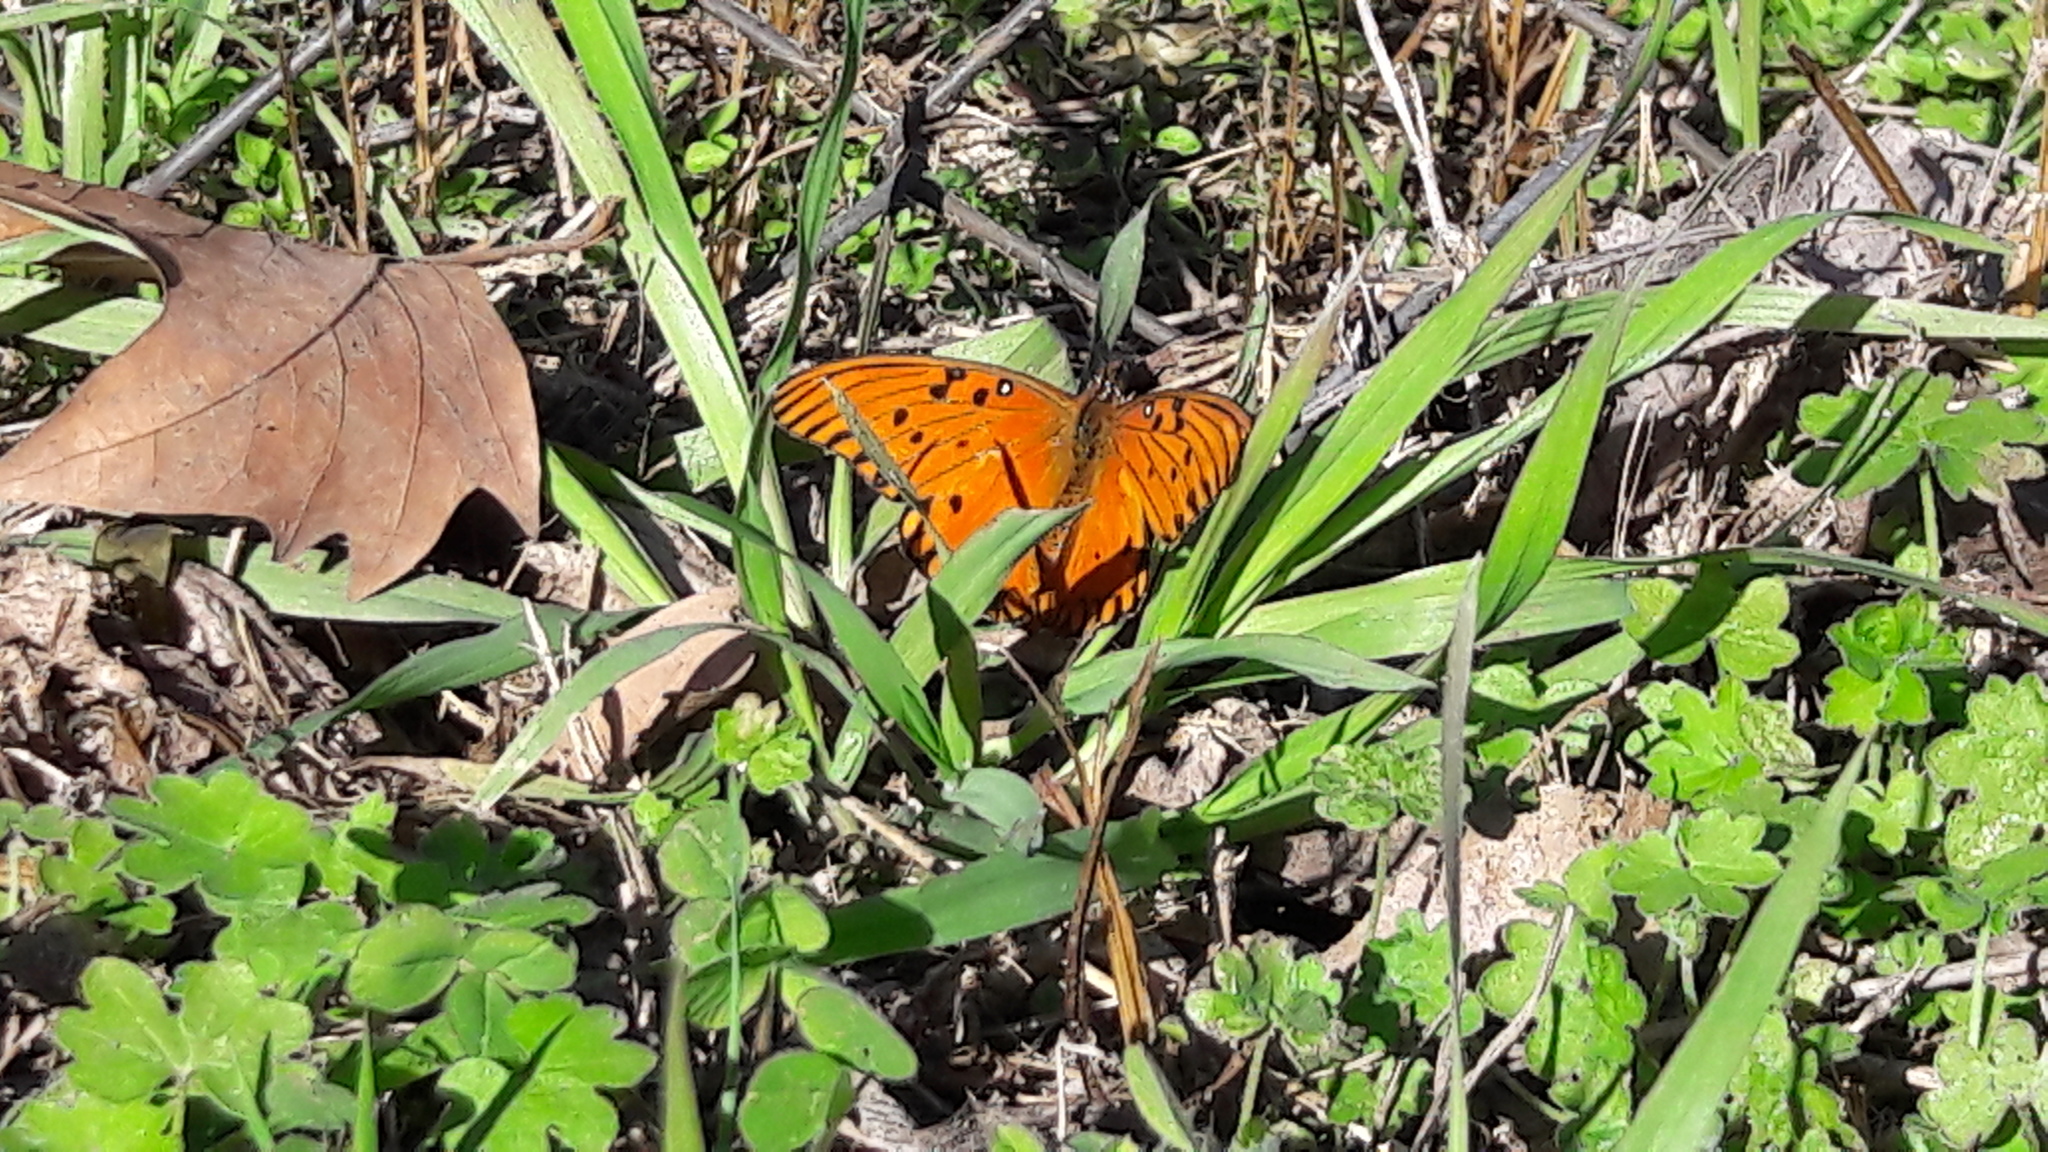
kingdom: Animalia
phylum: Arthropoda
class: Insecta
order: Lepidoptera
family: Nymphalidae
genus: Dione
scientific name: Dione vanillae
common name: Gulf fritillary
